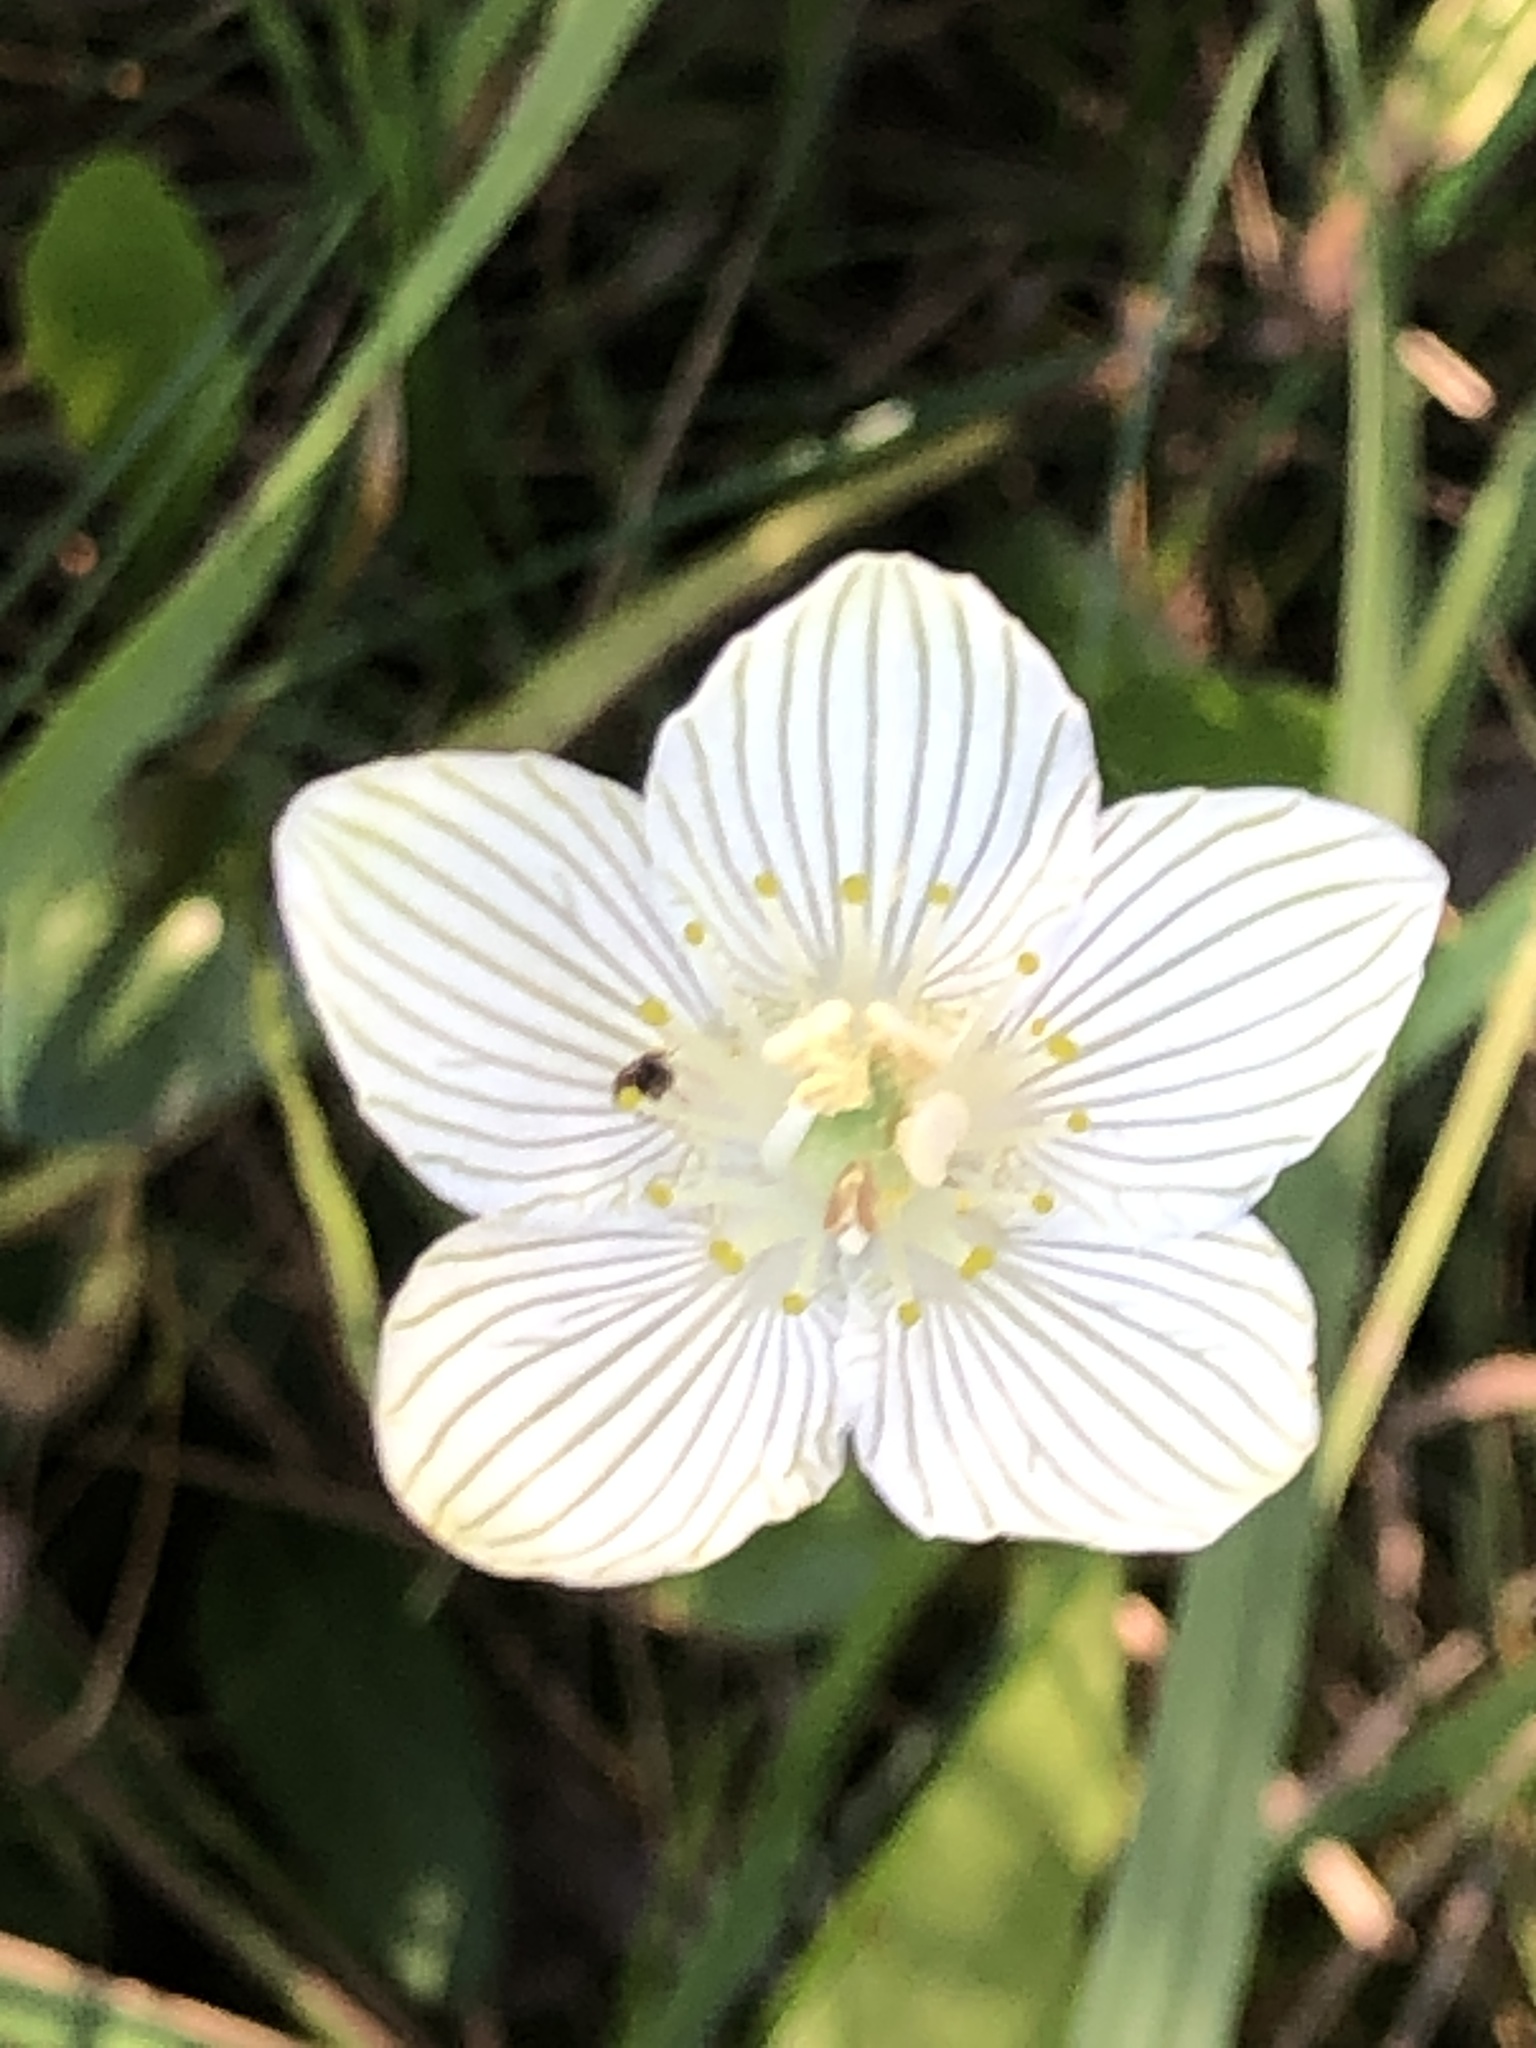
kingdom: Plantae
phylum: Tracheophyta
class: Magnoliopsida
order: Celastrales
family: Parnassiaceae
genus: Parnassia
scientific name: Parnassia glauca
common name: American grass-of-parnassus
